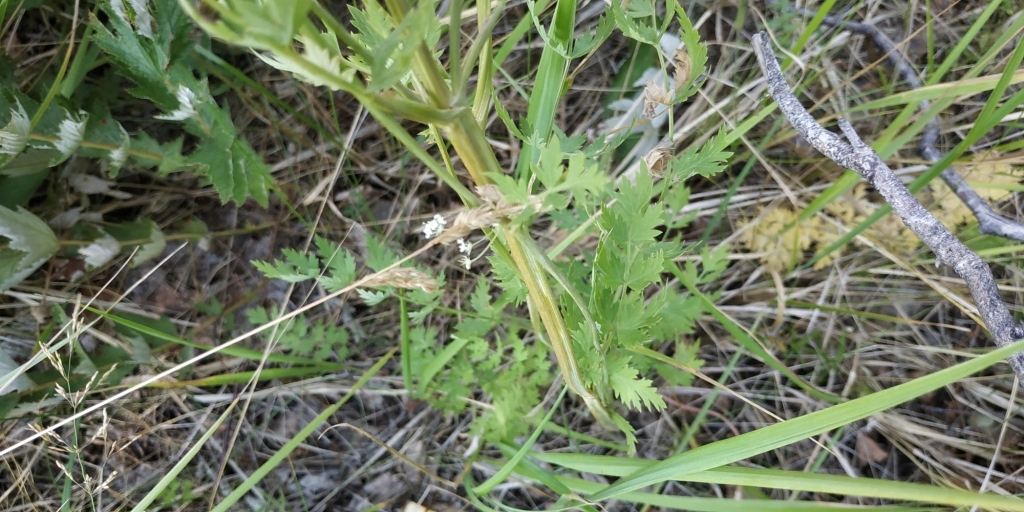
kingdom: Plantae
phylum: Tracheophyta
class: Magnoliopsida
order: Apiales
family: Apiaceae
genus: Seseli
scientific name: Seseli libanotis
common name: Mooncarrot
